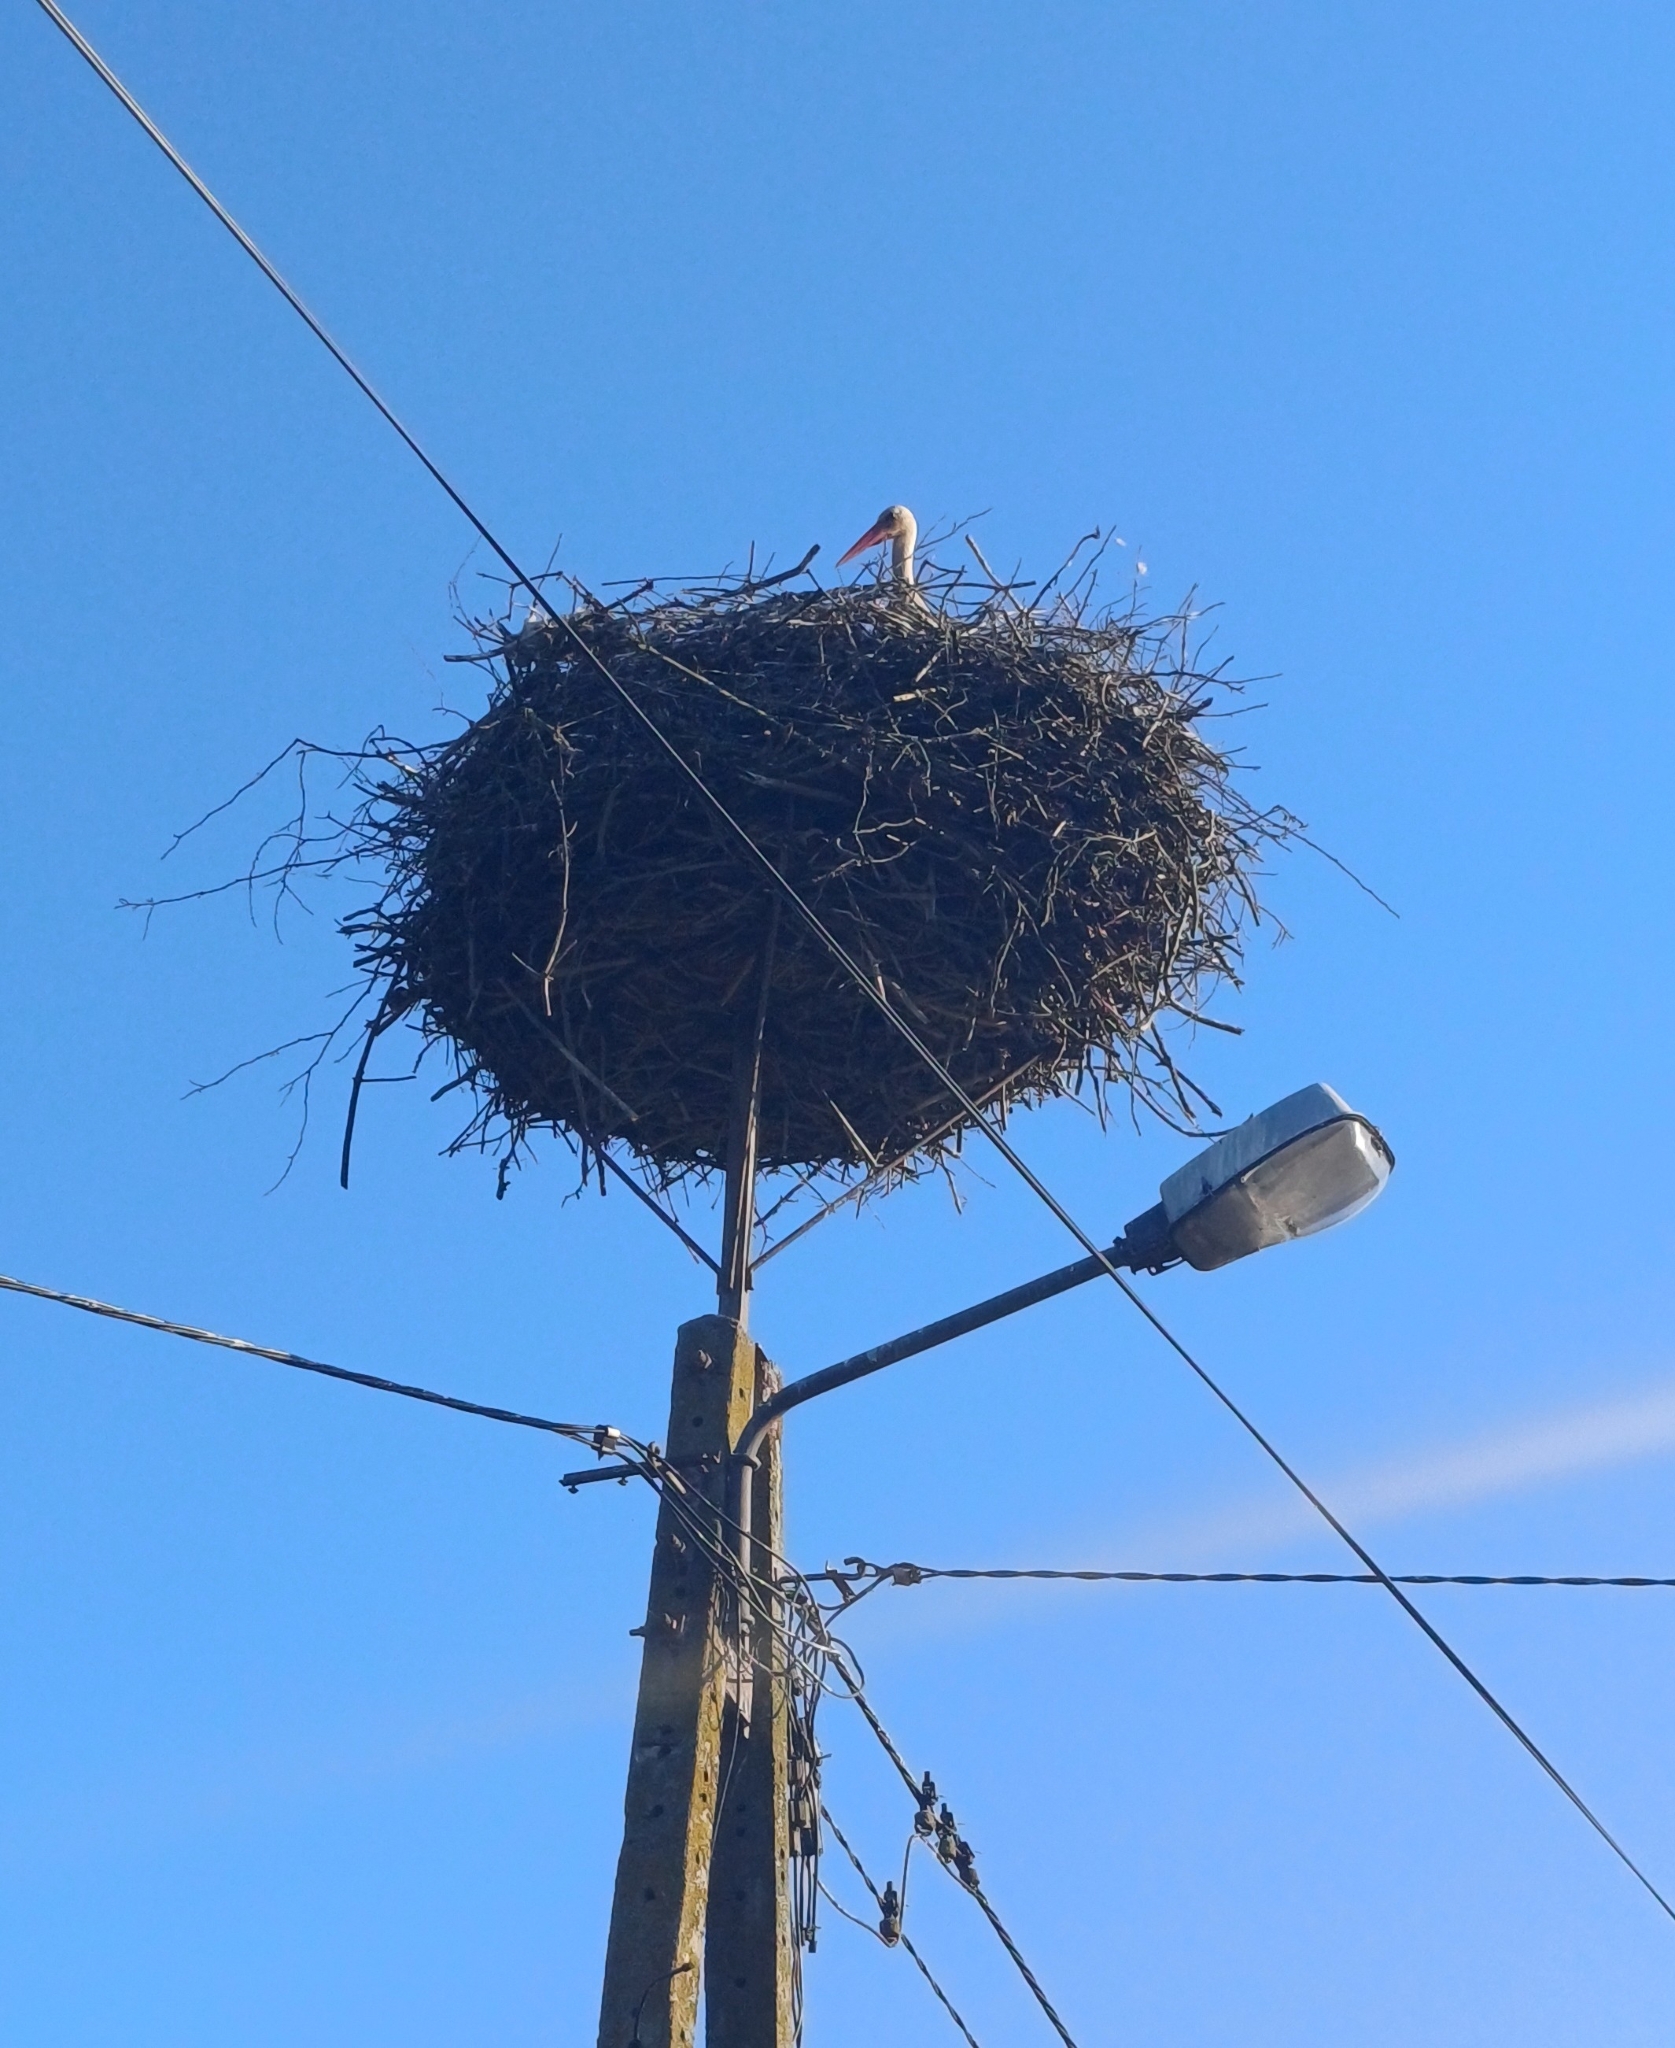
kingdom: Animalia
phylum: Chordata
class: Aves
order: Ciconiiformes
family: Ciconiidae
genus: Ciconia
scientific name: Ciconia ciconia
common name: White stork
